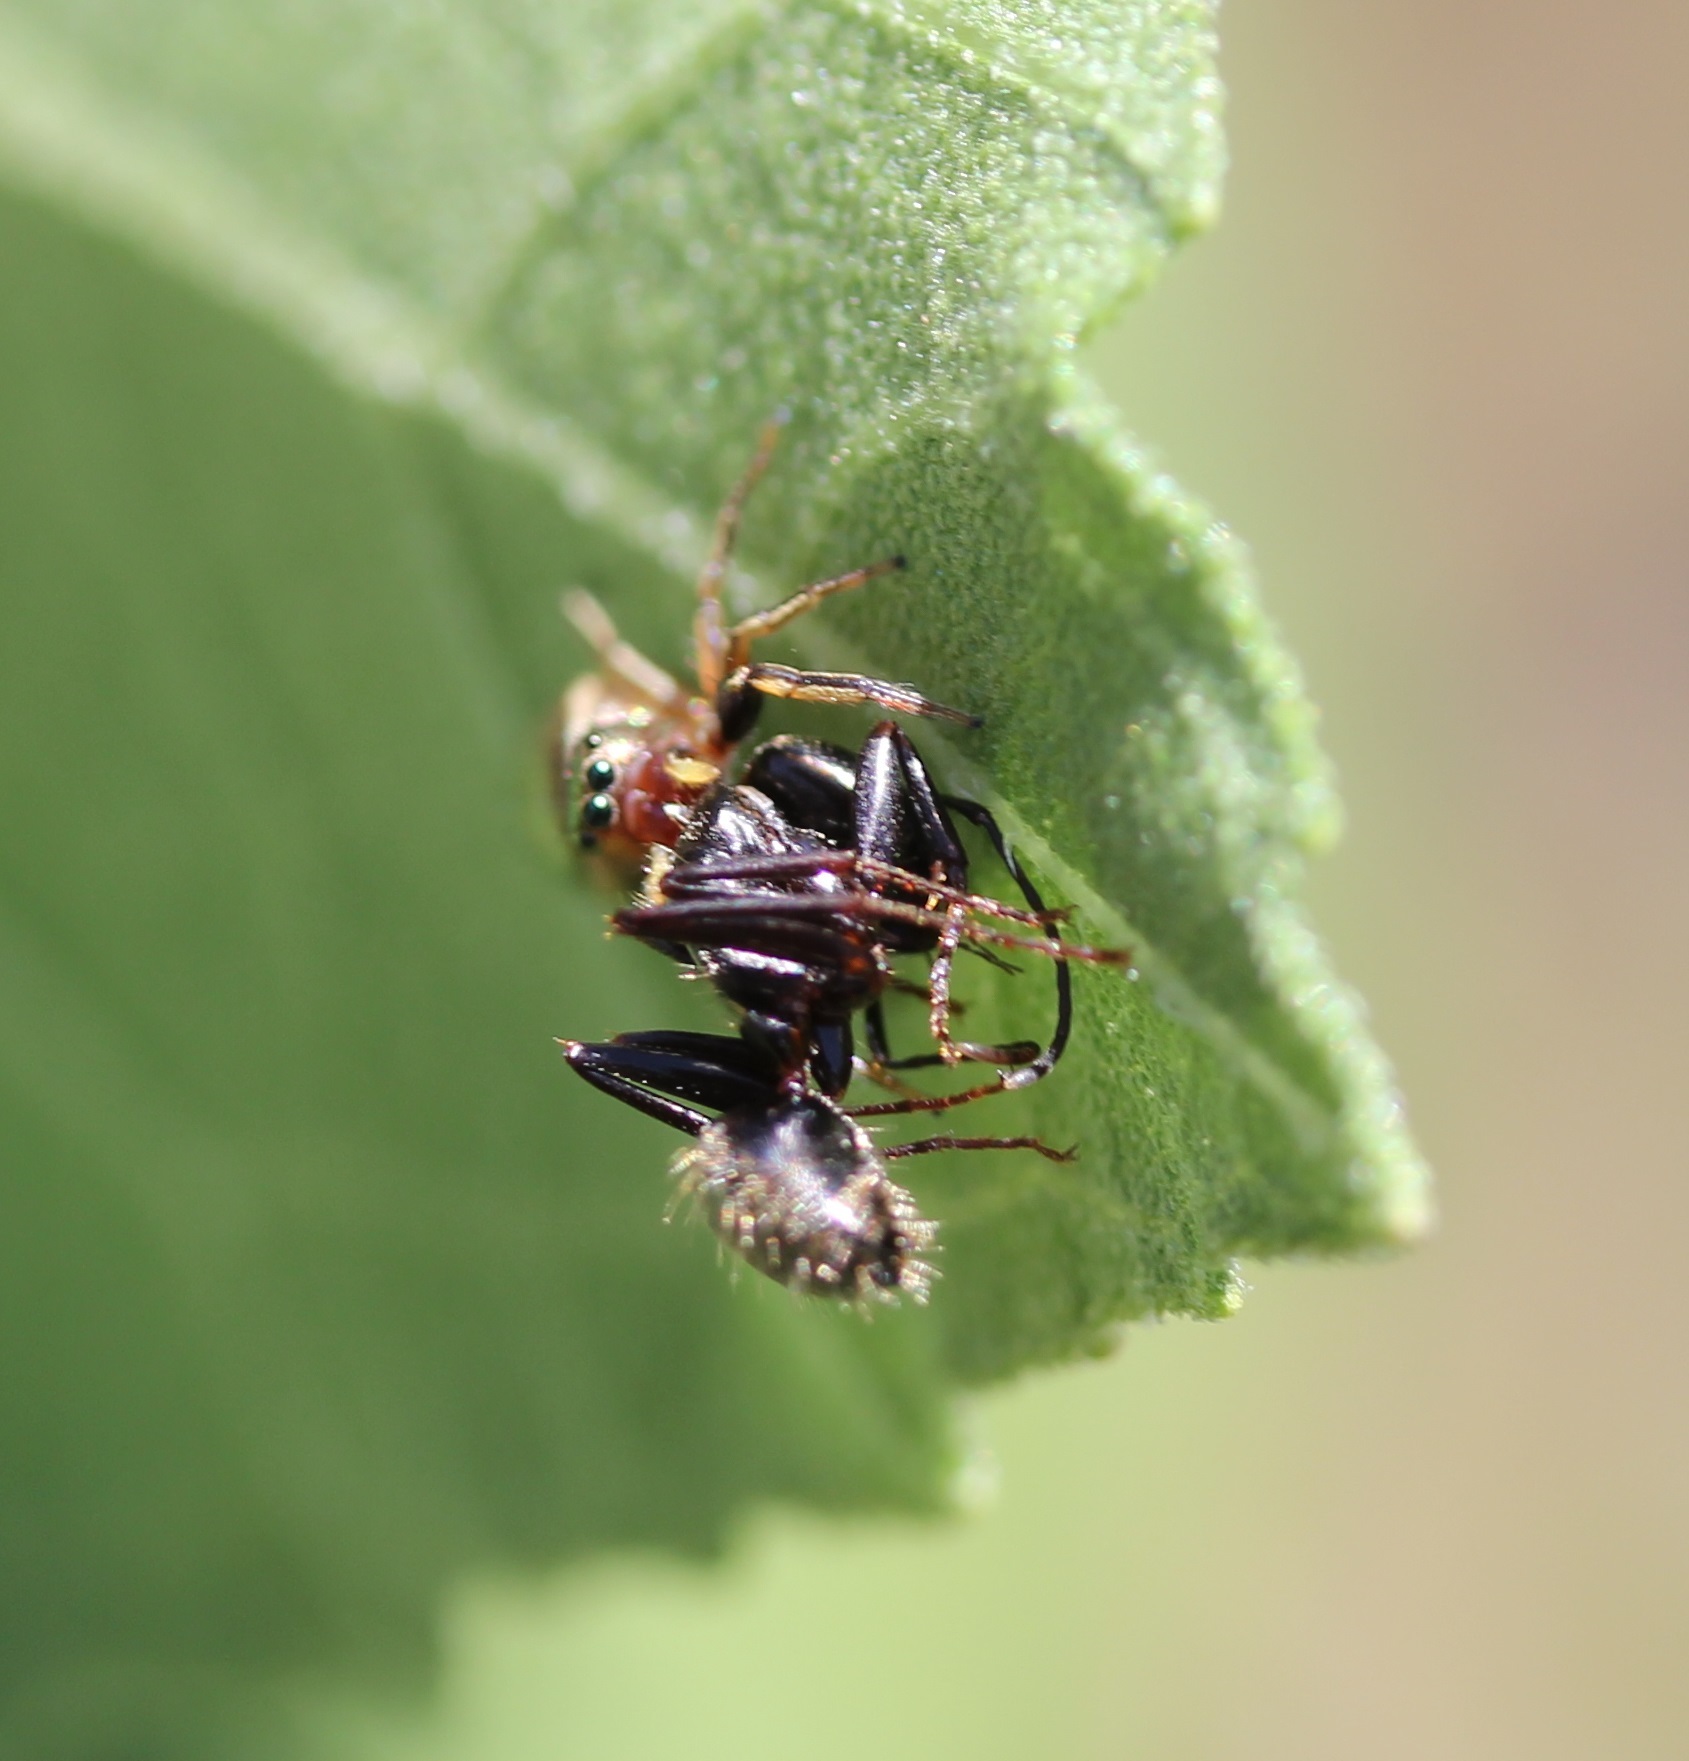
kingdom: Animalia
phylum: Arthropoda
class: Arachnida
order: Araneae
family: Salticidae
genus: Tutelina
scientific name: Tutelina elegans
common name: Thin-spined jumping spider
